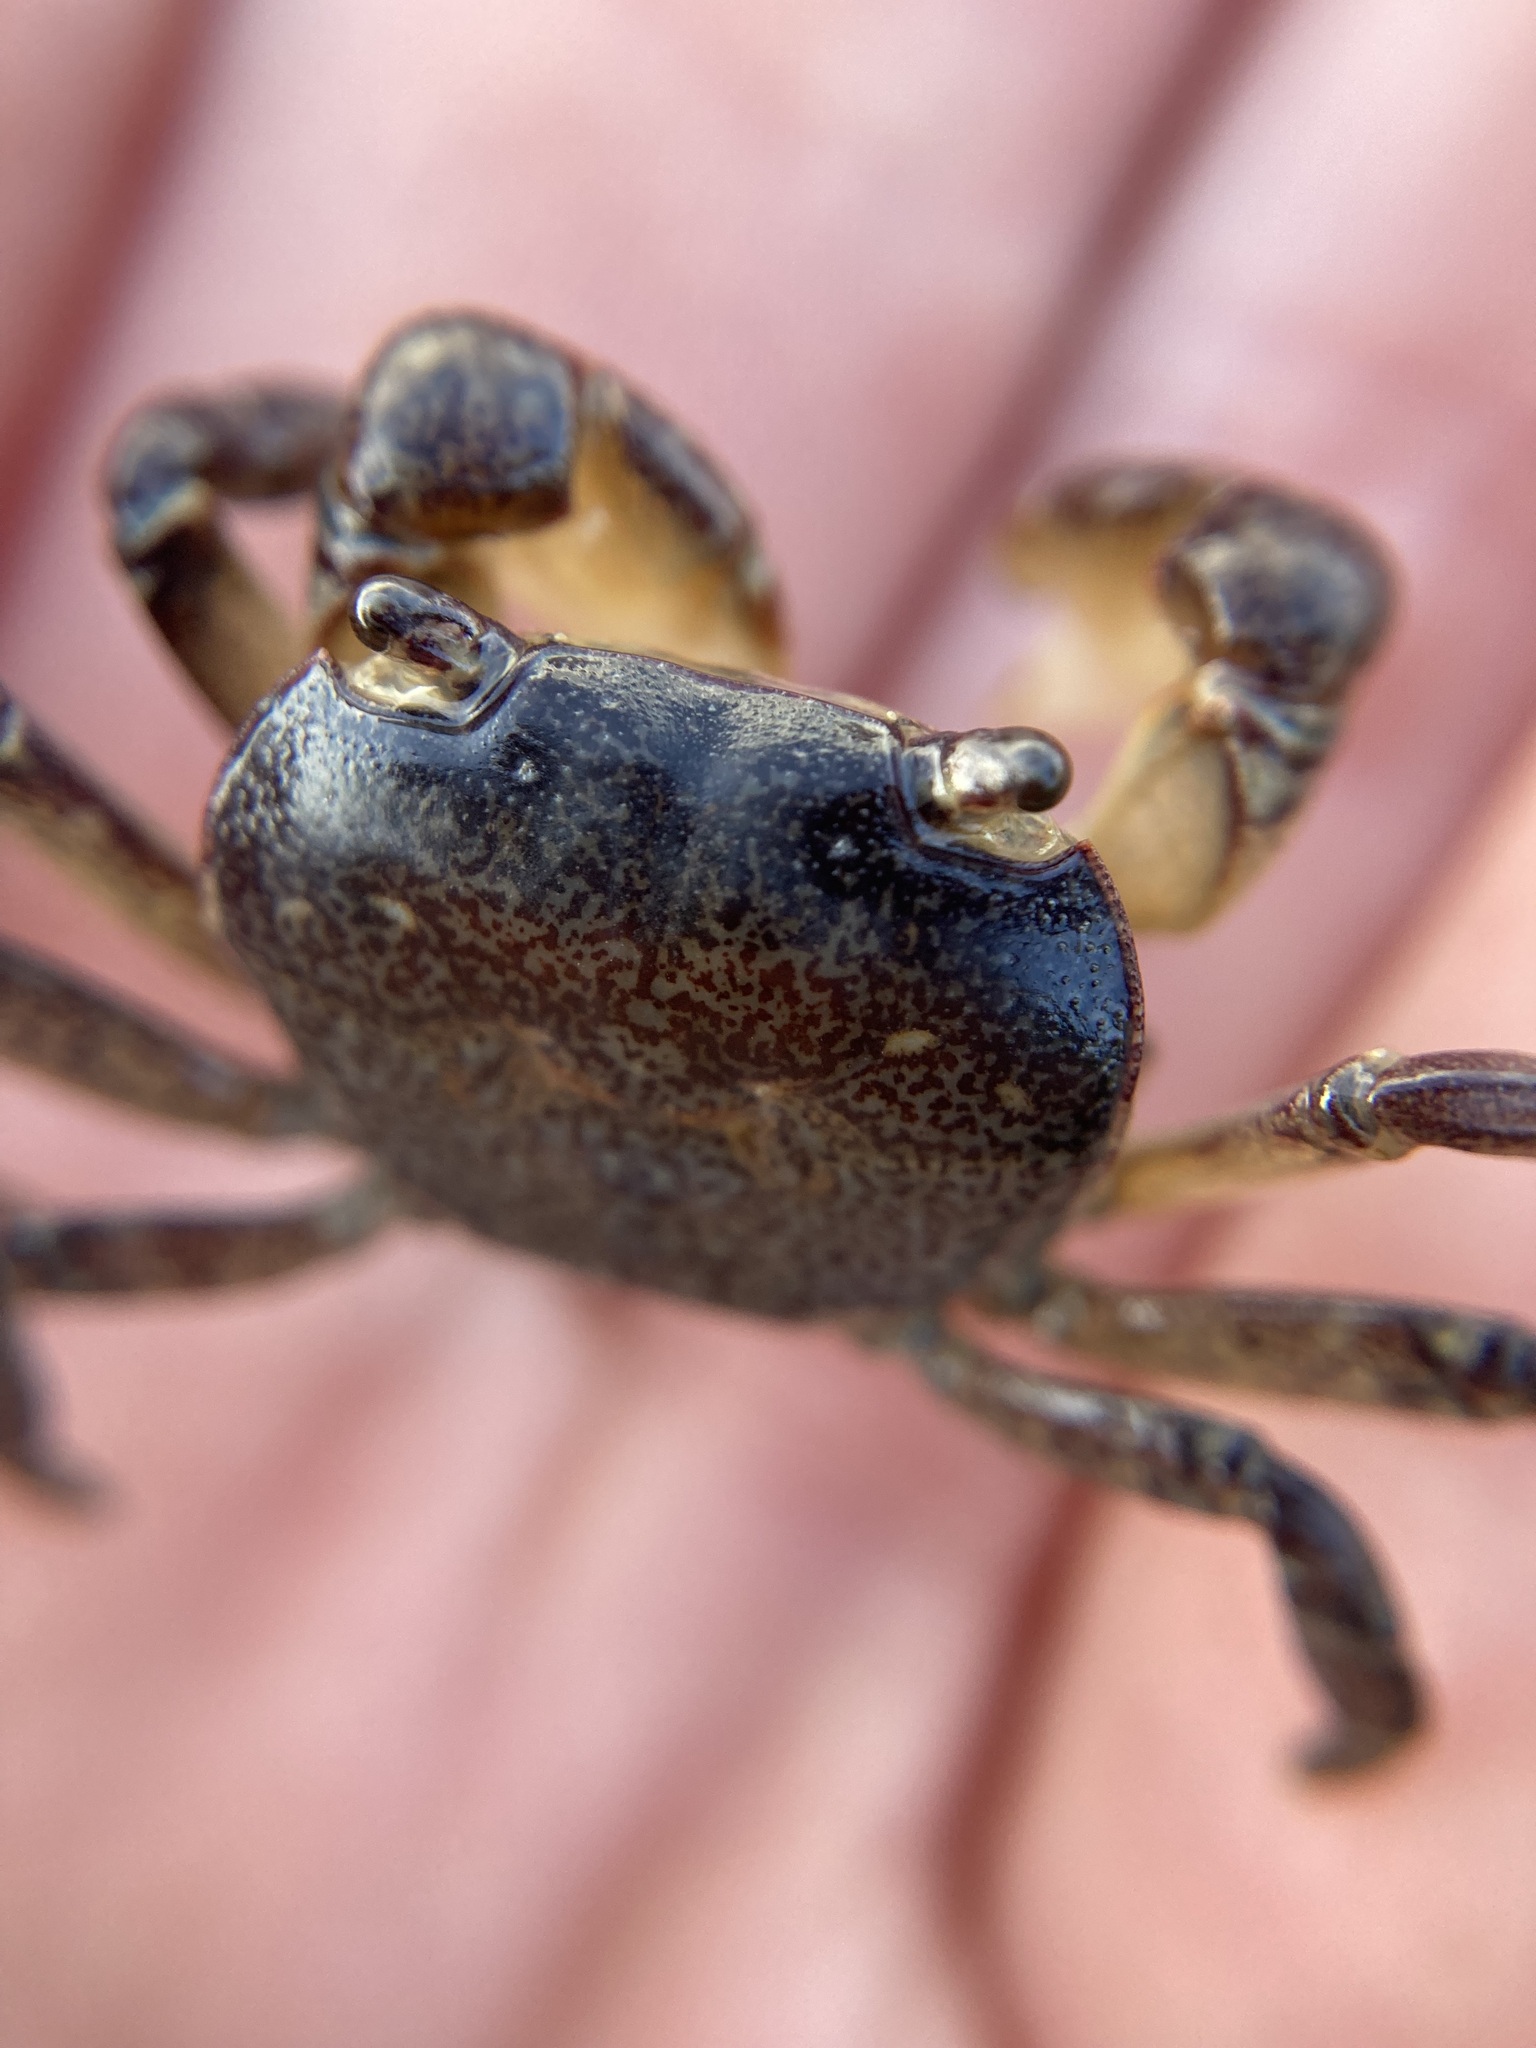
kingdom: Animalia
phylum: Arthropoda
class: Malacostraca
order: Decapoda
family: Varunidae
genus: Cyclograpsus
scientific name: Cyclograpsus lavauxi
